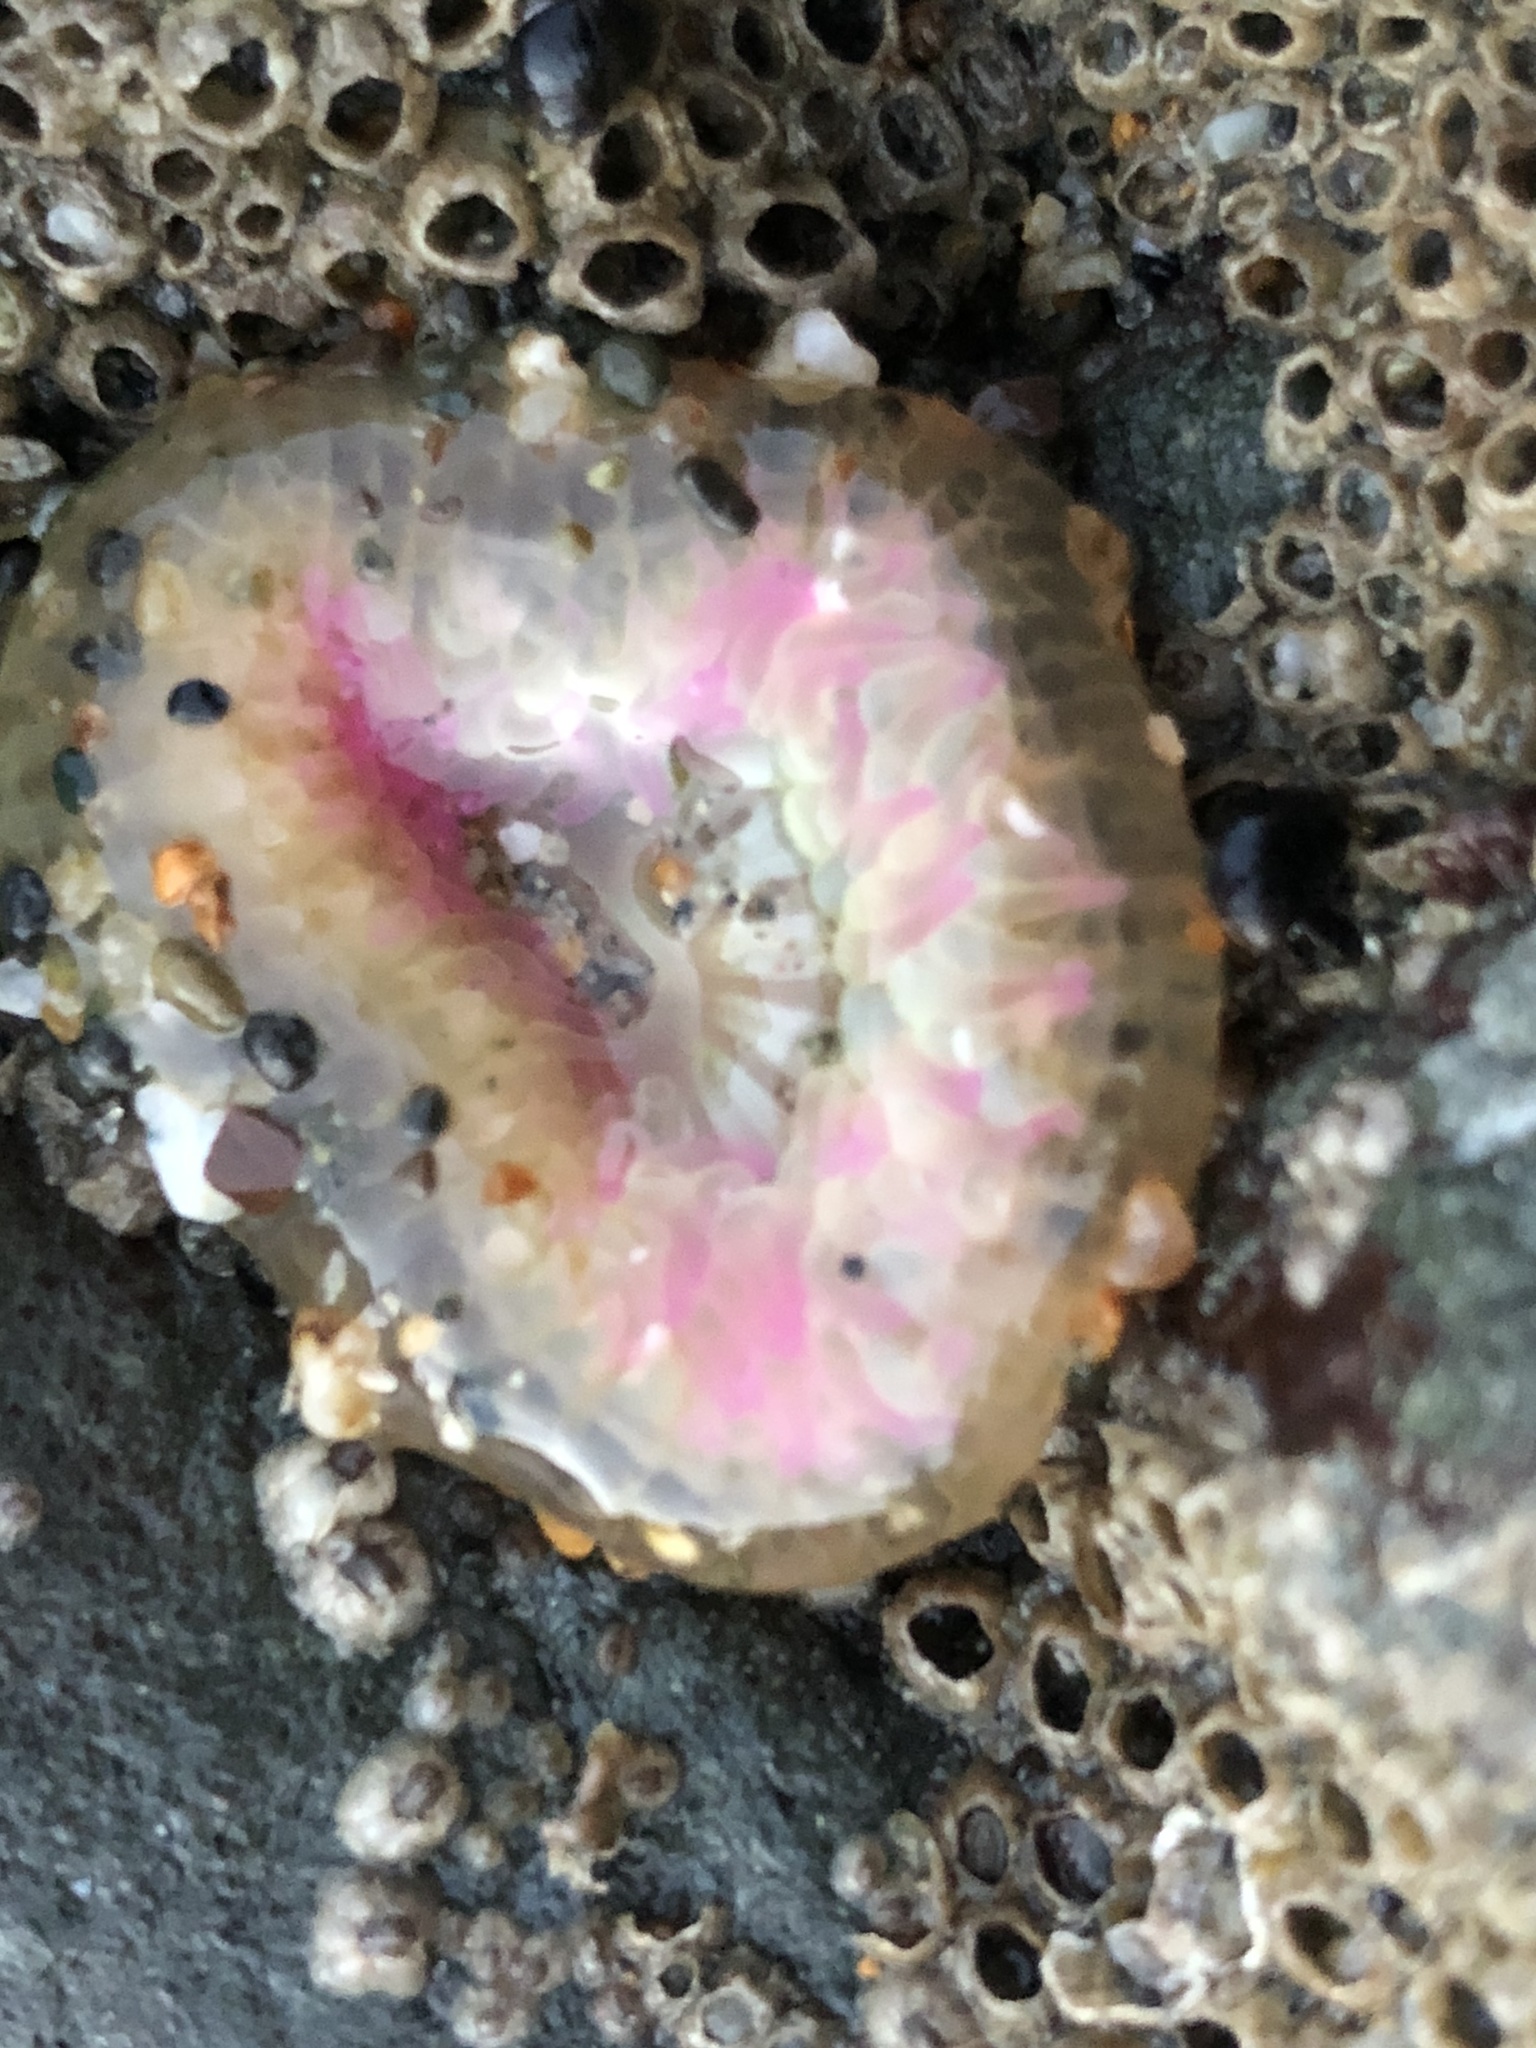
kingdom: Animalia
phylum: Cnidaria
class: Anthozoa
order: Actiniaria
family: Actiniidae
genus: Anthopleura
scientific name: Anthopleura elegantissima
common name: Clonal anemone
